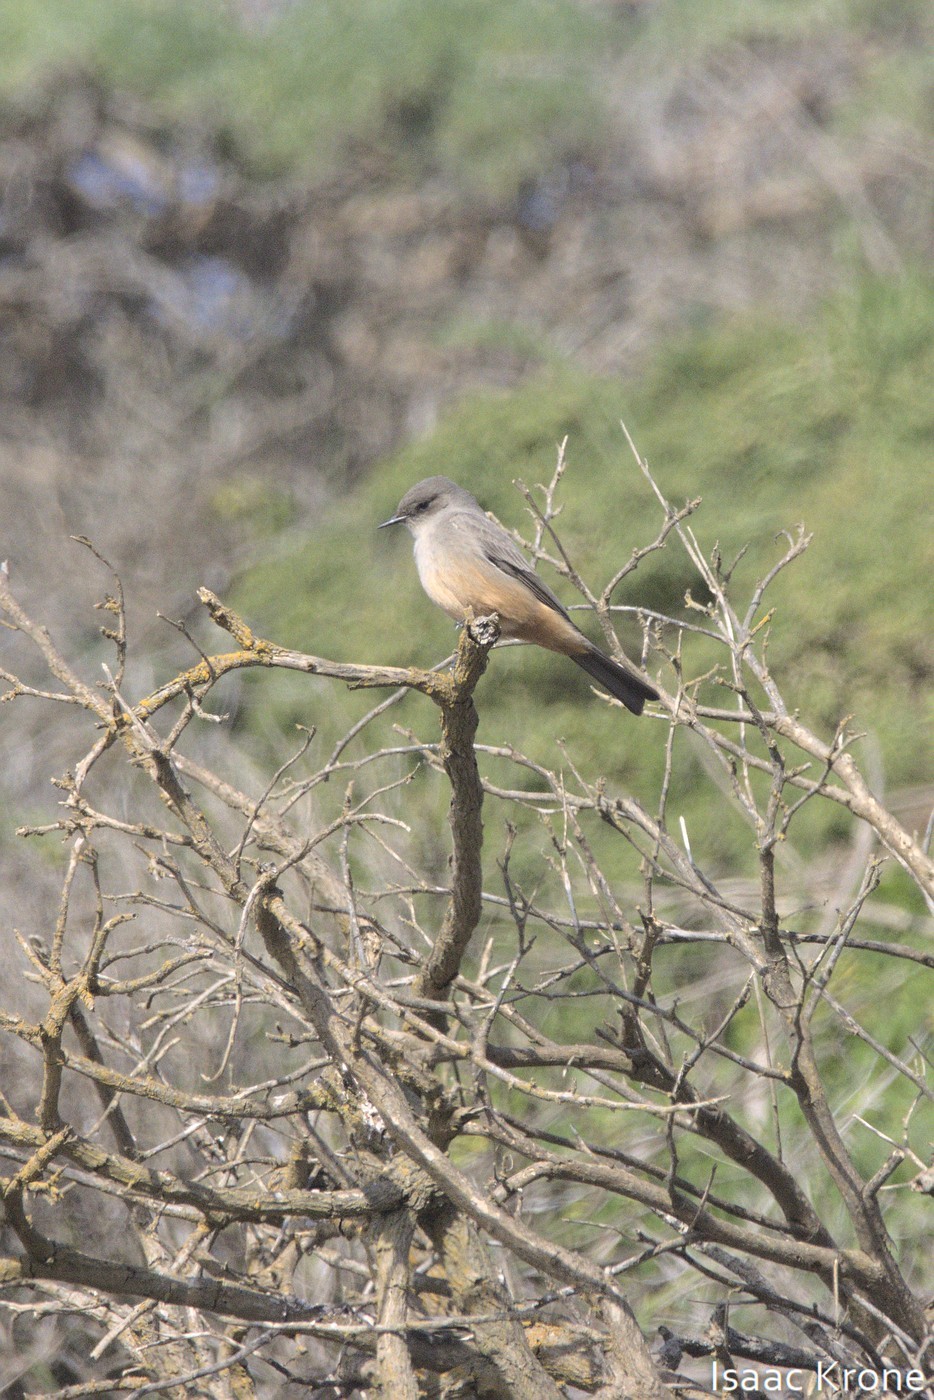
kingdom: Animalia
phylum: Chordata
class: Aves
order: Passeriformes
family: Tyrannidae
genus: Sayornis
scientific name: Sayornis saya
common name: Say's phoebe
